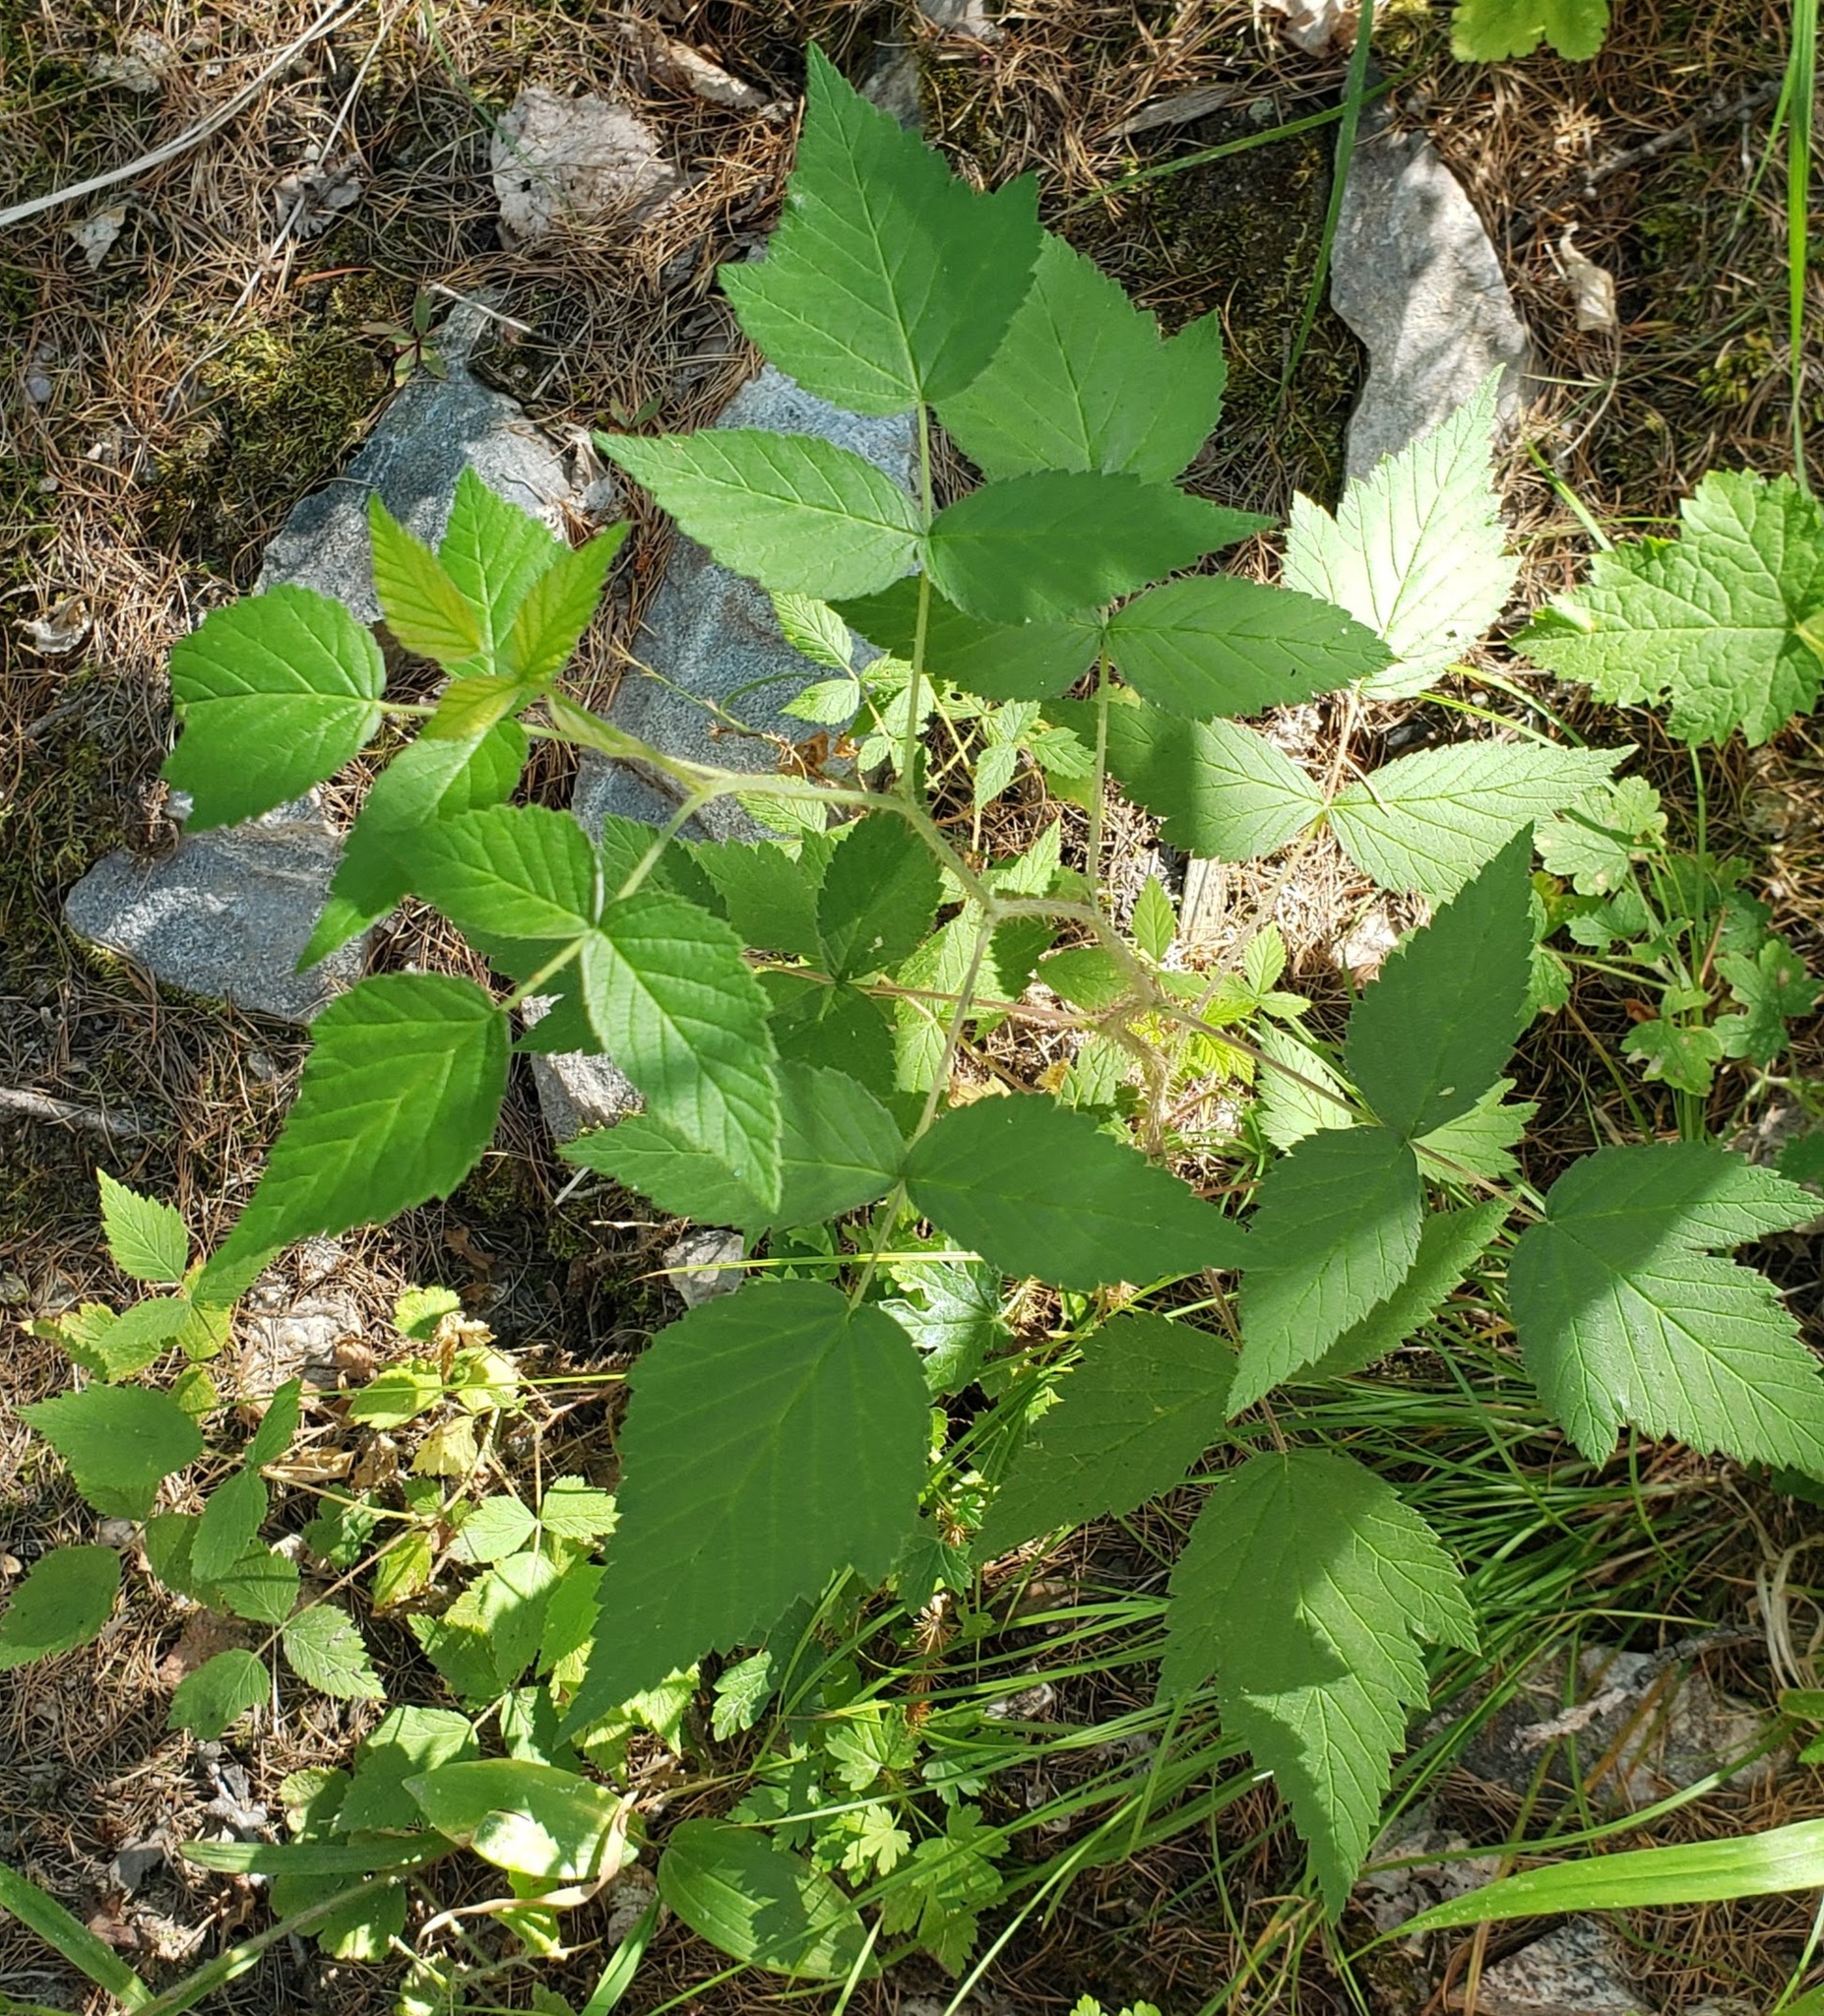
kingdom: Plantae
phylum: Tracheophyta
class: Magnoliopsida
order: Rosales
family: Rosaceae
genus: Rubus
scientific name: Rubus idaeus
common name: Raspberry
